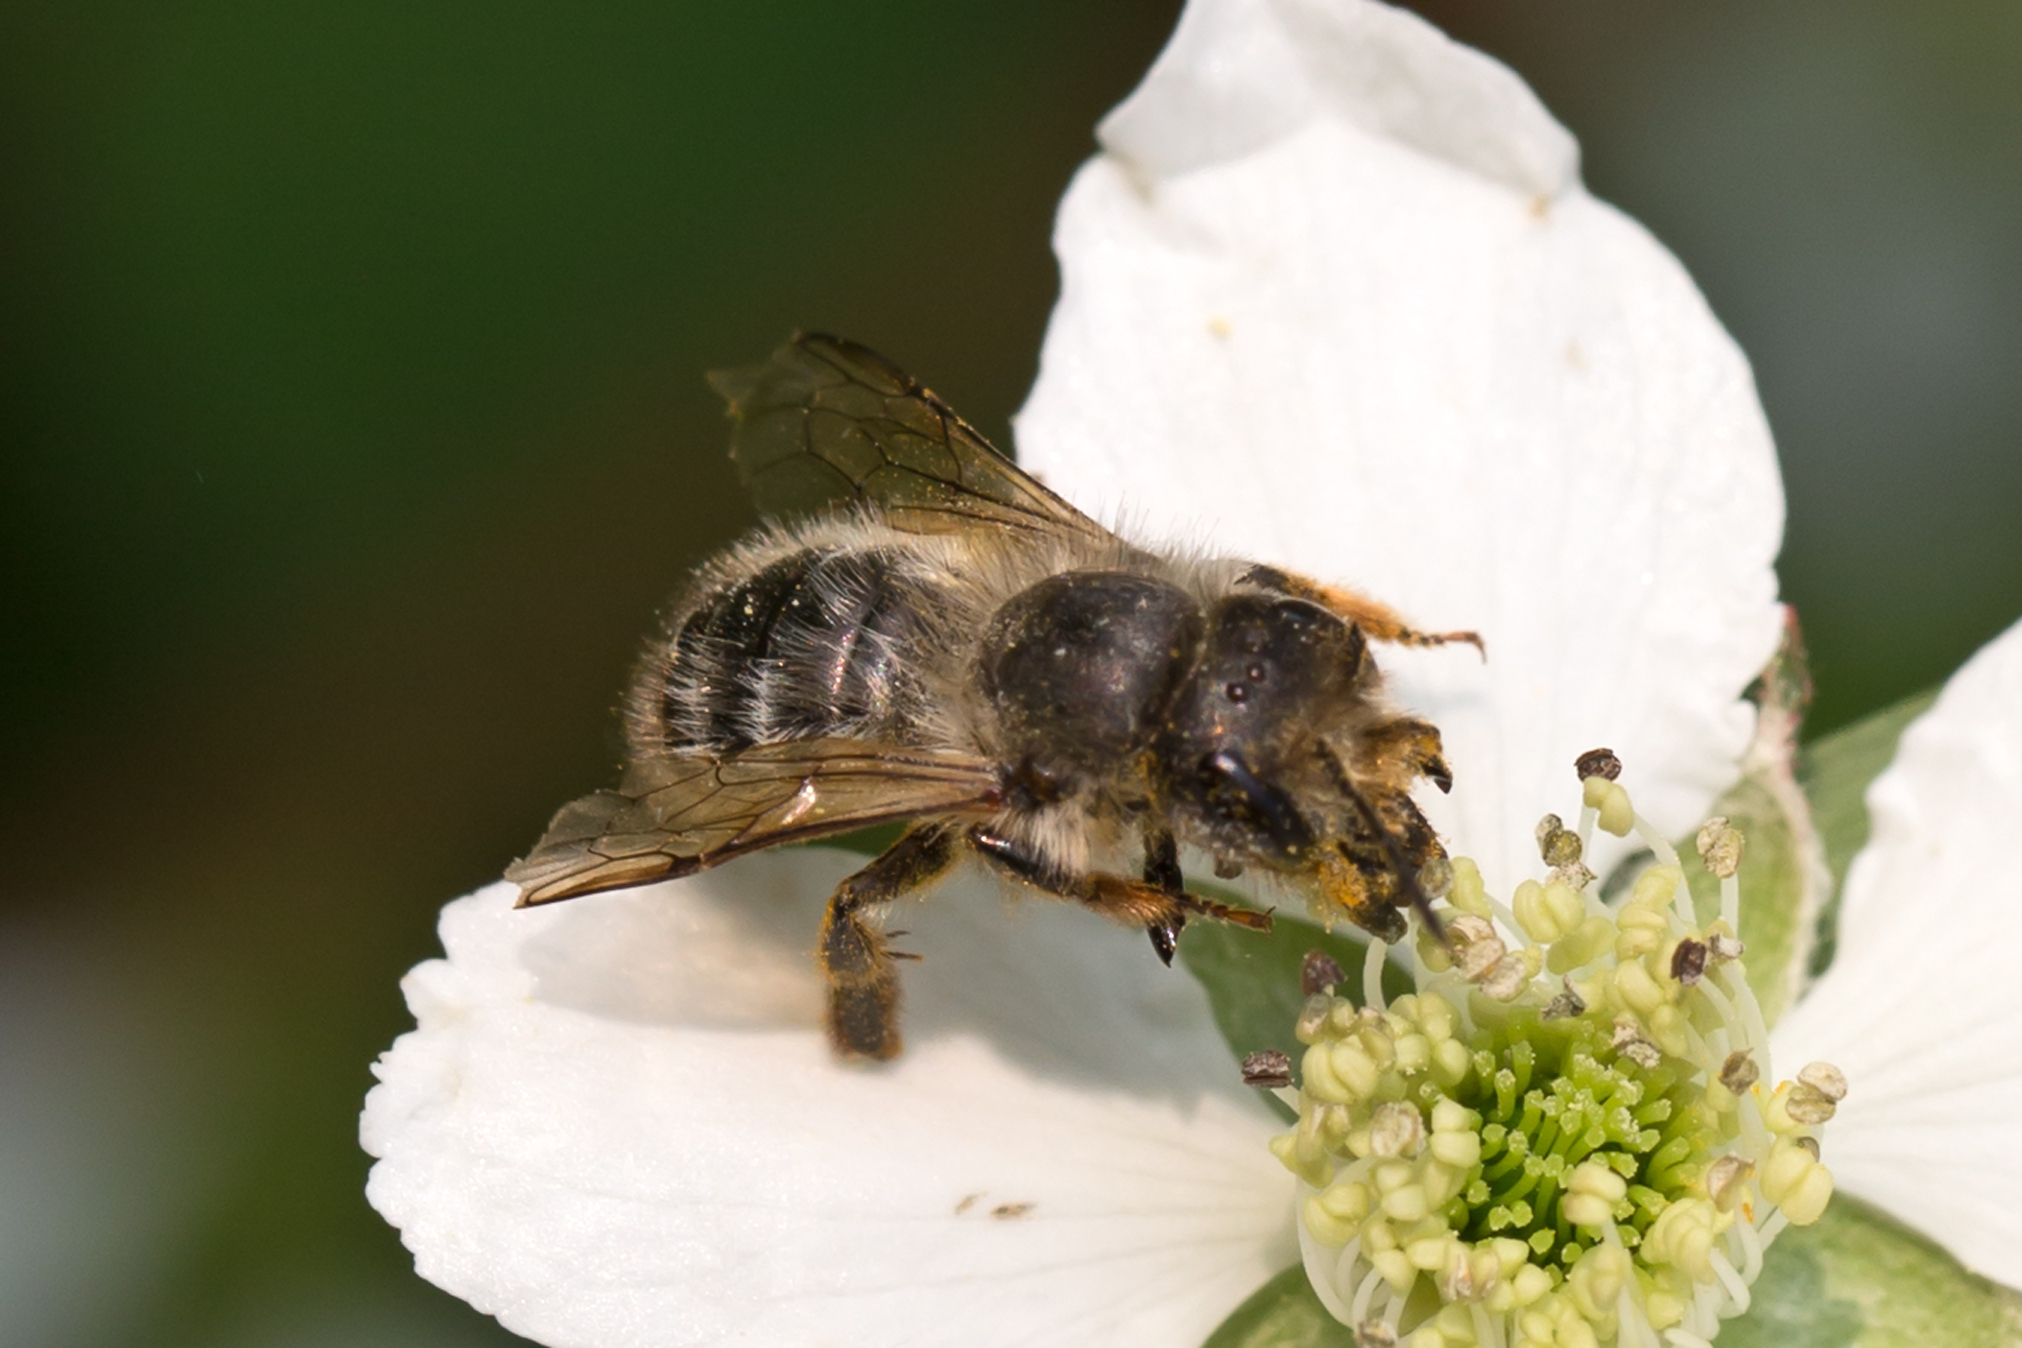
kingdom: Animalia
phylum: Arthropoda
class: Insecta
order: Hymenoptera
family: Megachilidae
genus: Osmia
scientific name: Osmia cornifrons
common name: Horn-faced bee
